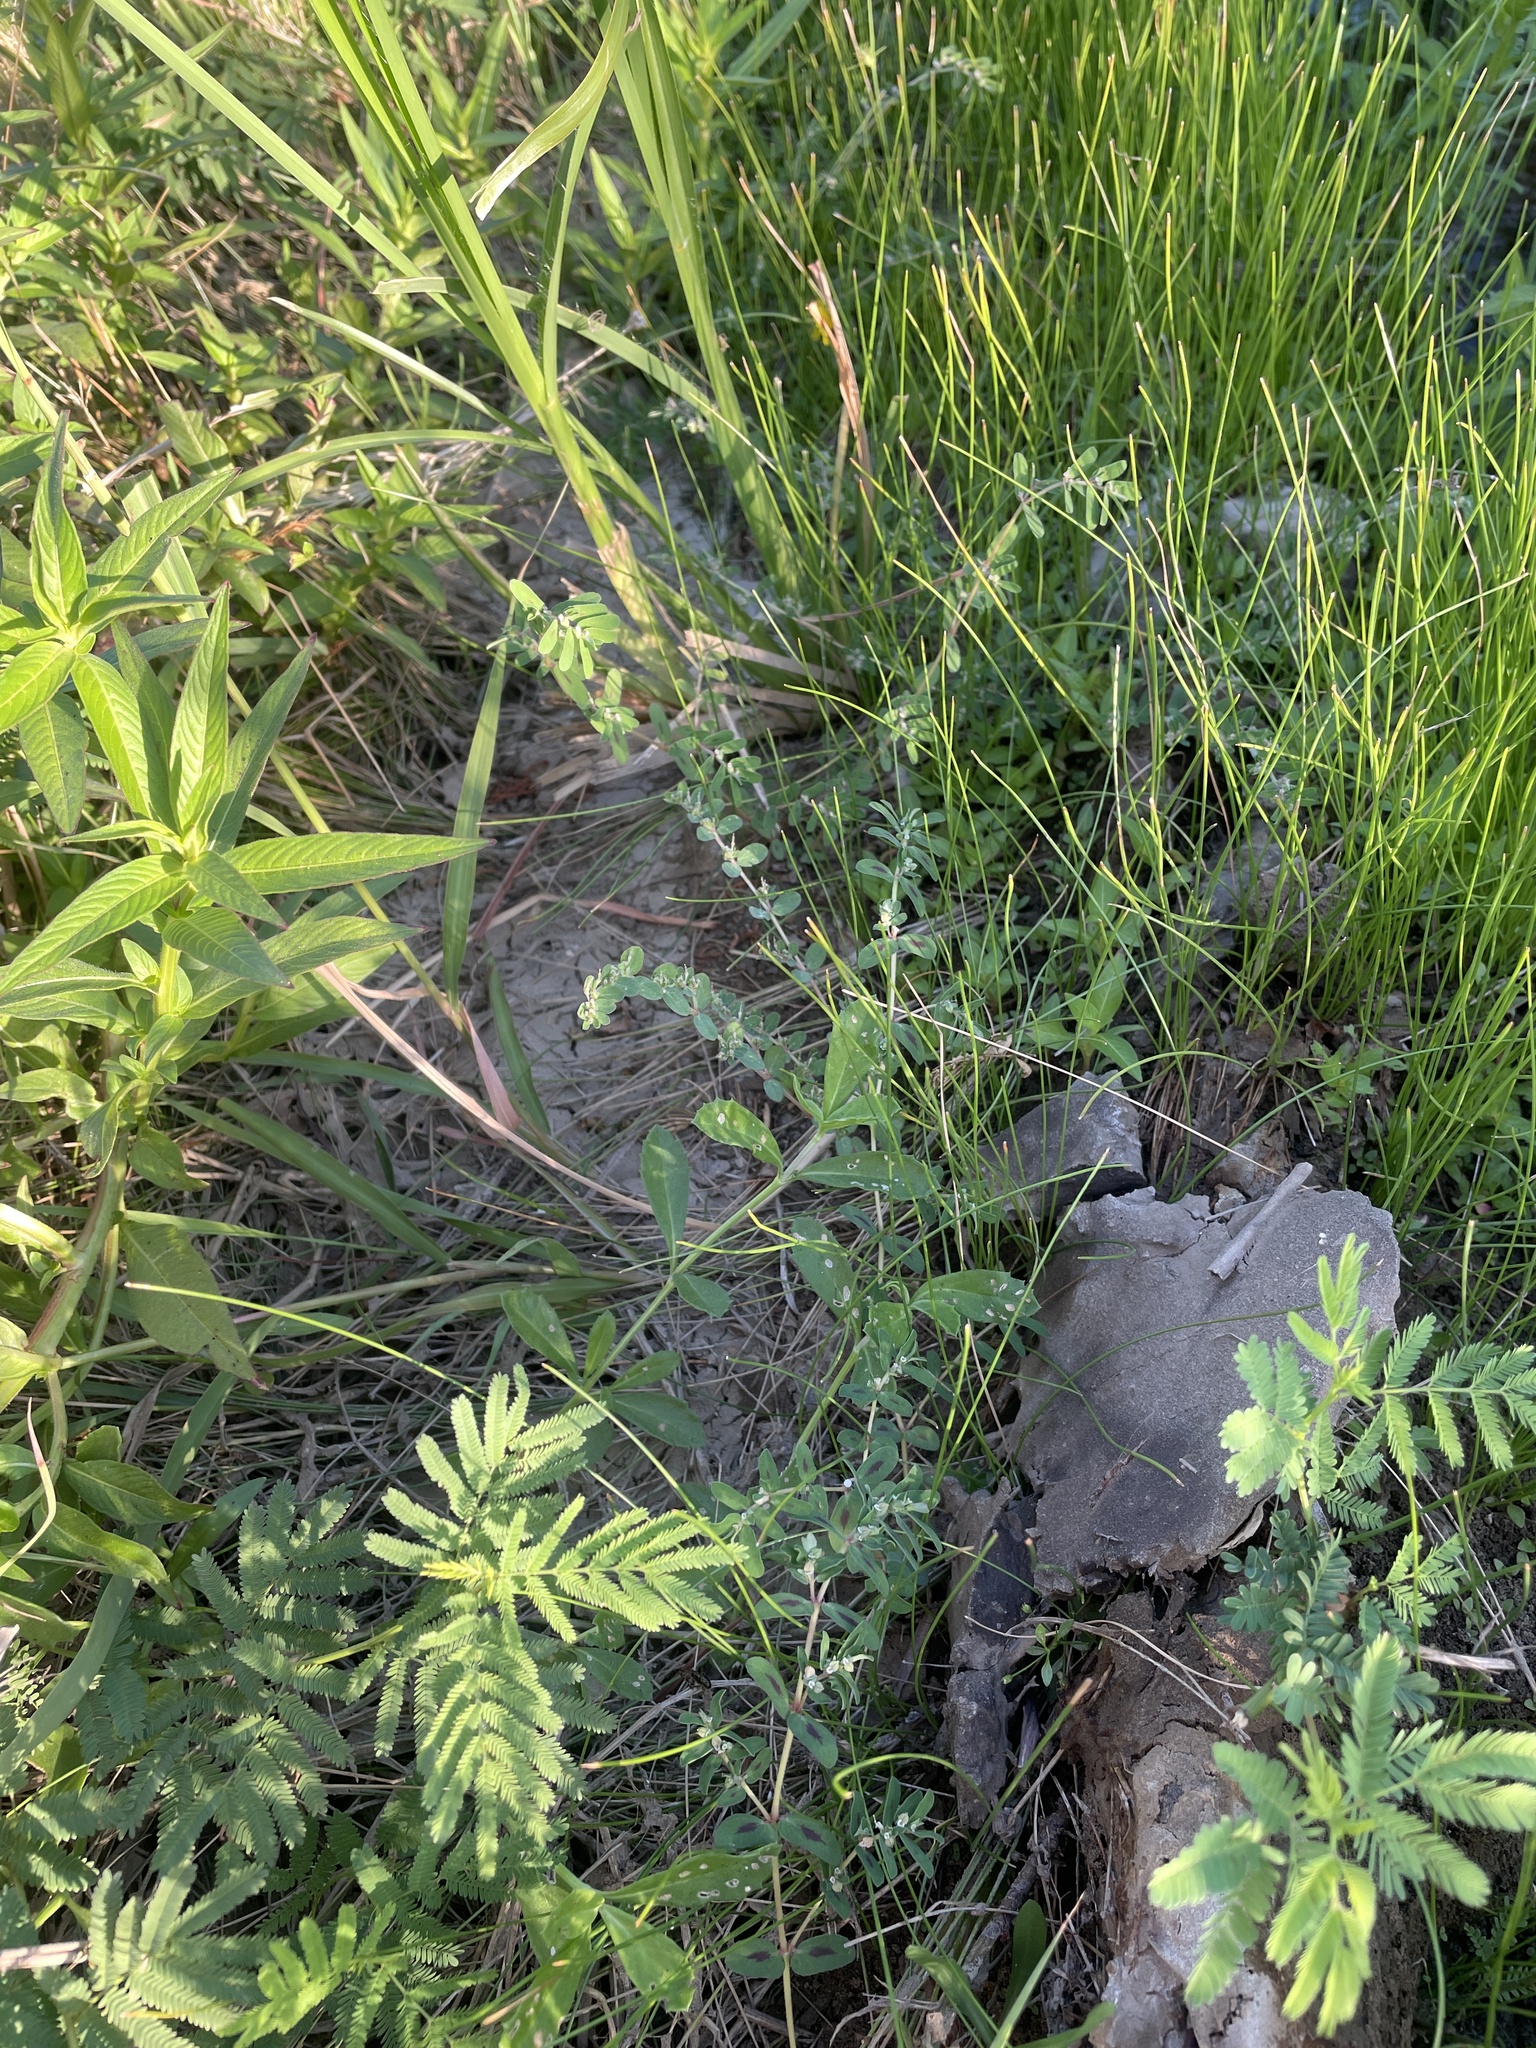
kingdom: Plantae
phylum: Tracheophyta
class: Magnoliopsida
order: Malpighiales
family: Euphorbiaceae
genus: Euphorbia
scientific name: Euphorbia maculata
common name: Spotted spurge
